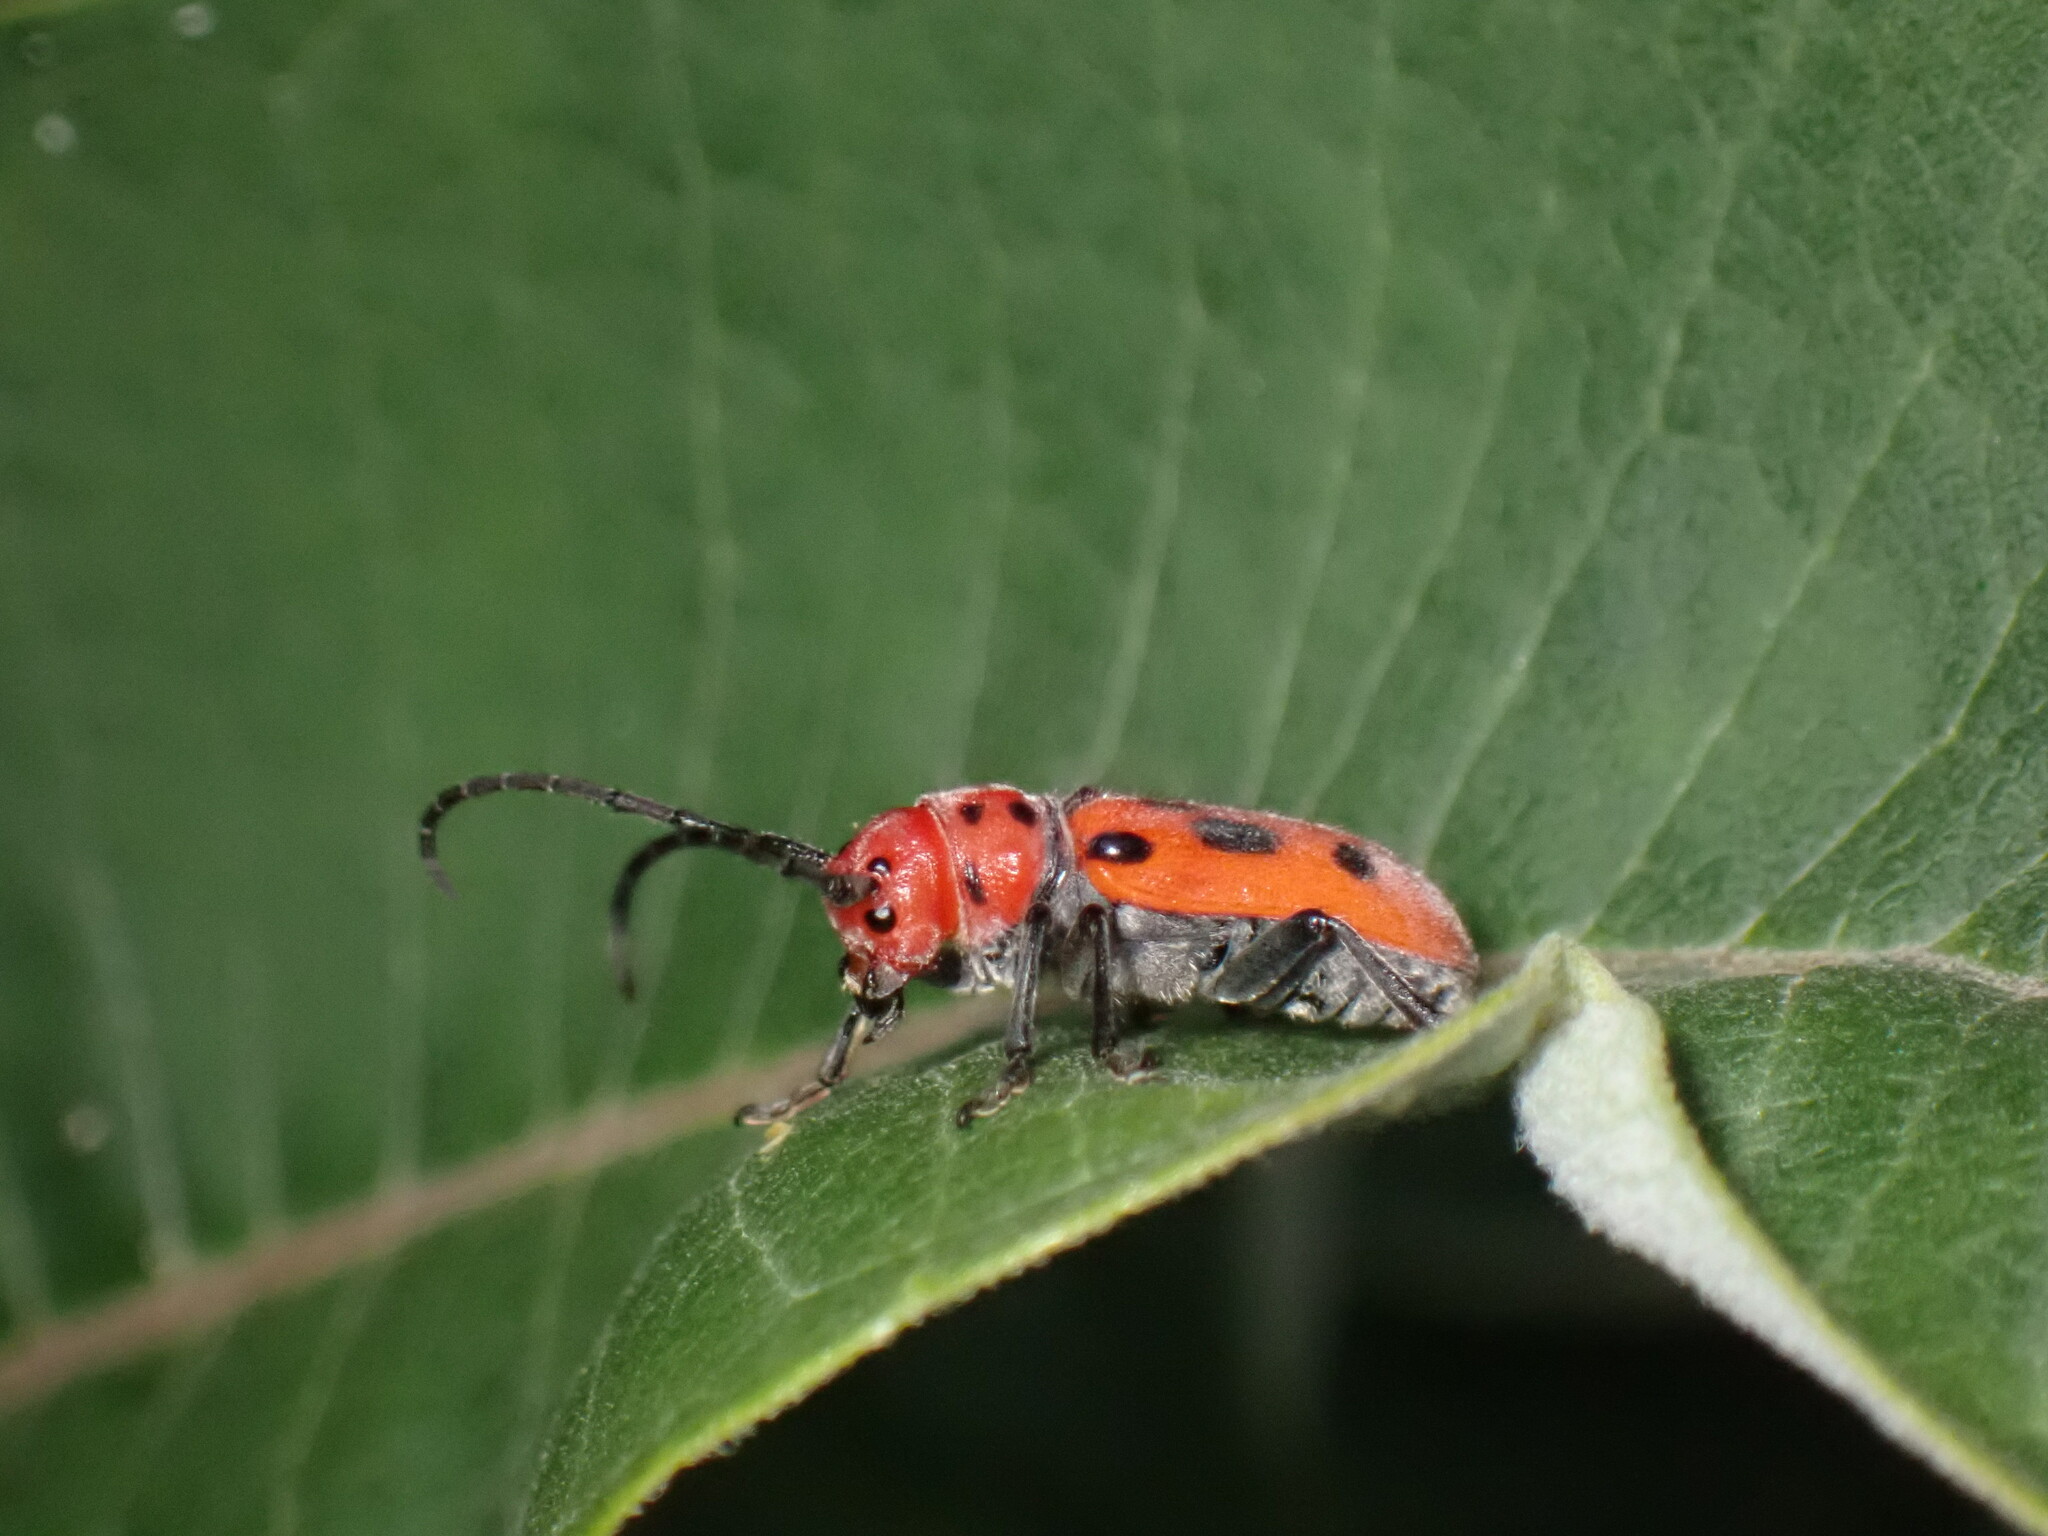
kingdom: Animalia
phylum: Arthropoda
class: Insecta
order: Coleoptera
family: Cerambycidae
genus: Tetraopes
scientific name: Tetraopes tetrophthalmus
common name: Red milkweed beetle
